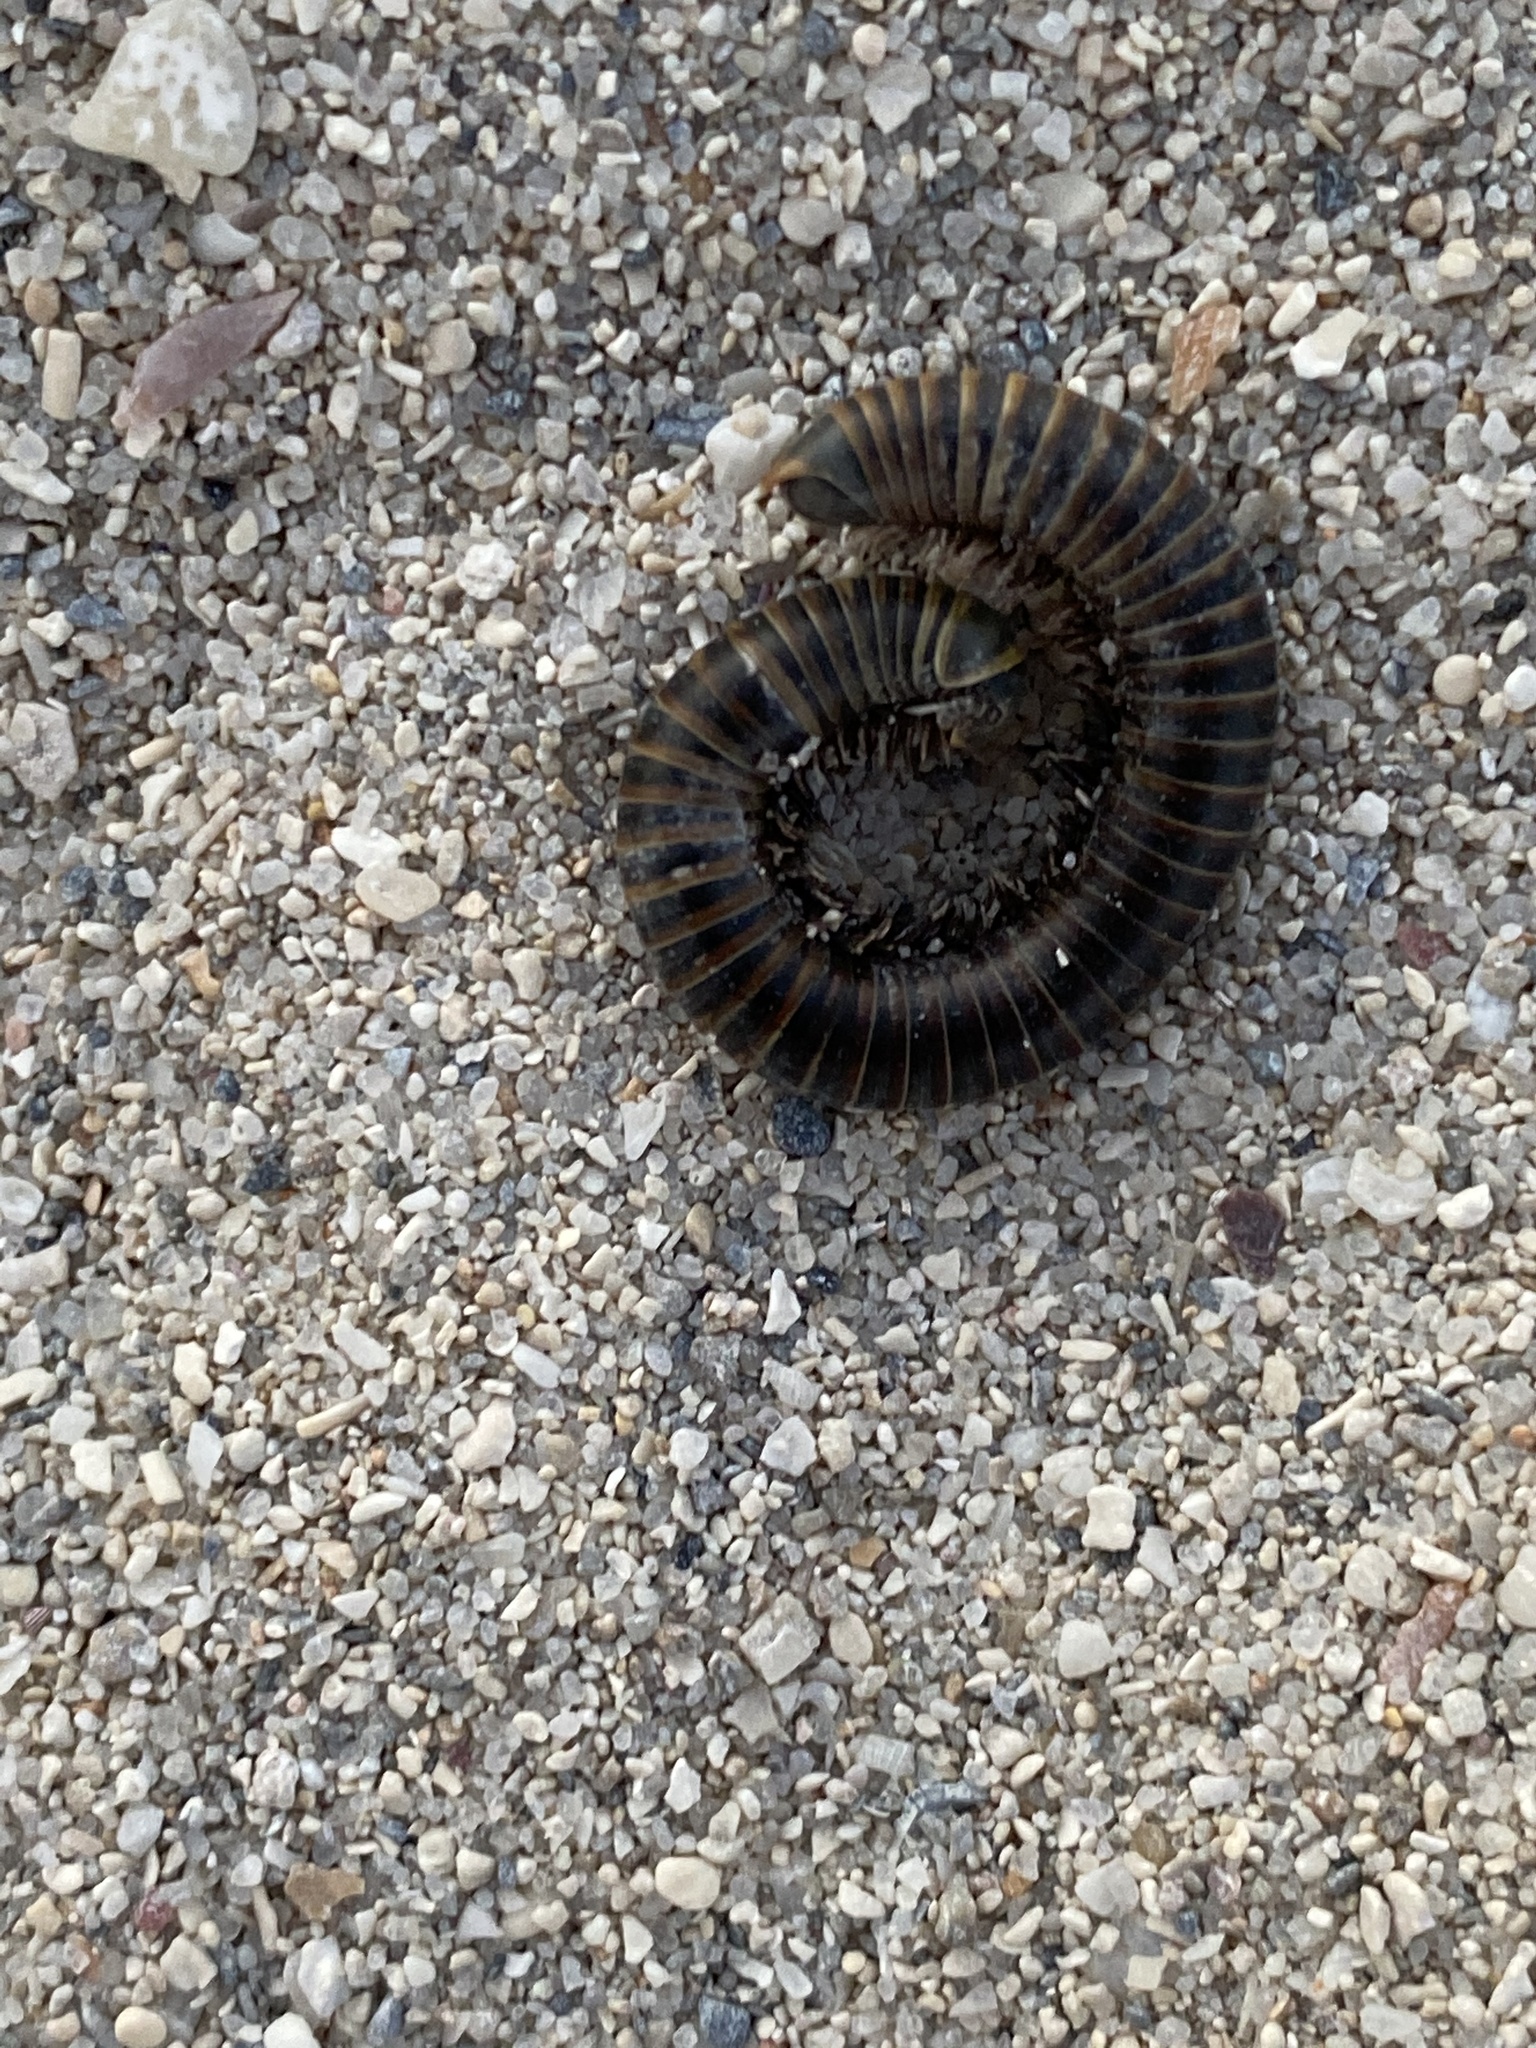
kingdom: Animalia
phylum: Arthropoda
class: Diplopoda
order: Spirobolida
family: Rhinocricidae
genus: Anadenobolus
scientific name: Anadenobolus monilicornis
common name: Caribbean millipede
